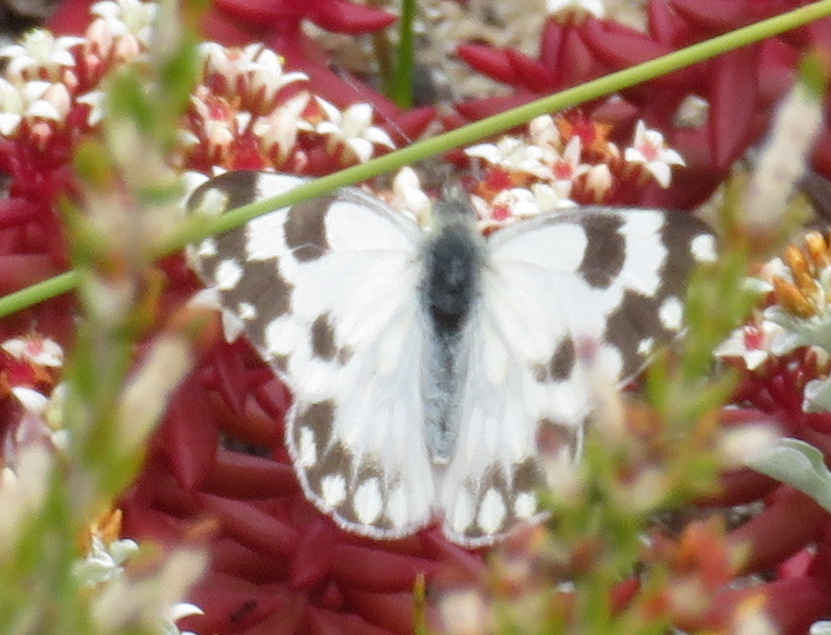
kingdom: Animalia
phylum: Arthropoda
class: Insecta
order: Lepidoptera
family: Pieridae
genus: Pontia
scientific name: Pontia helice
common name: Meadow white
